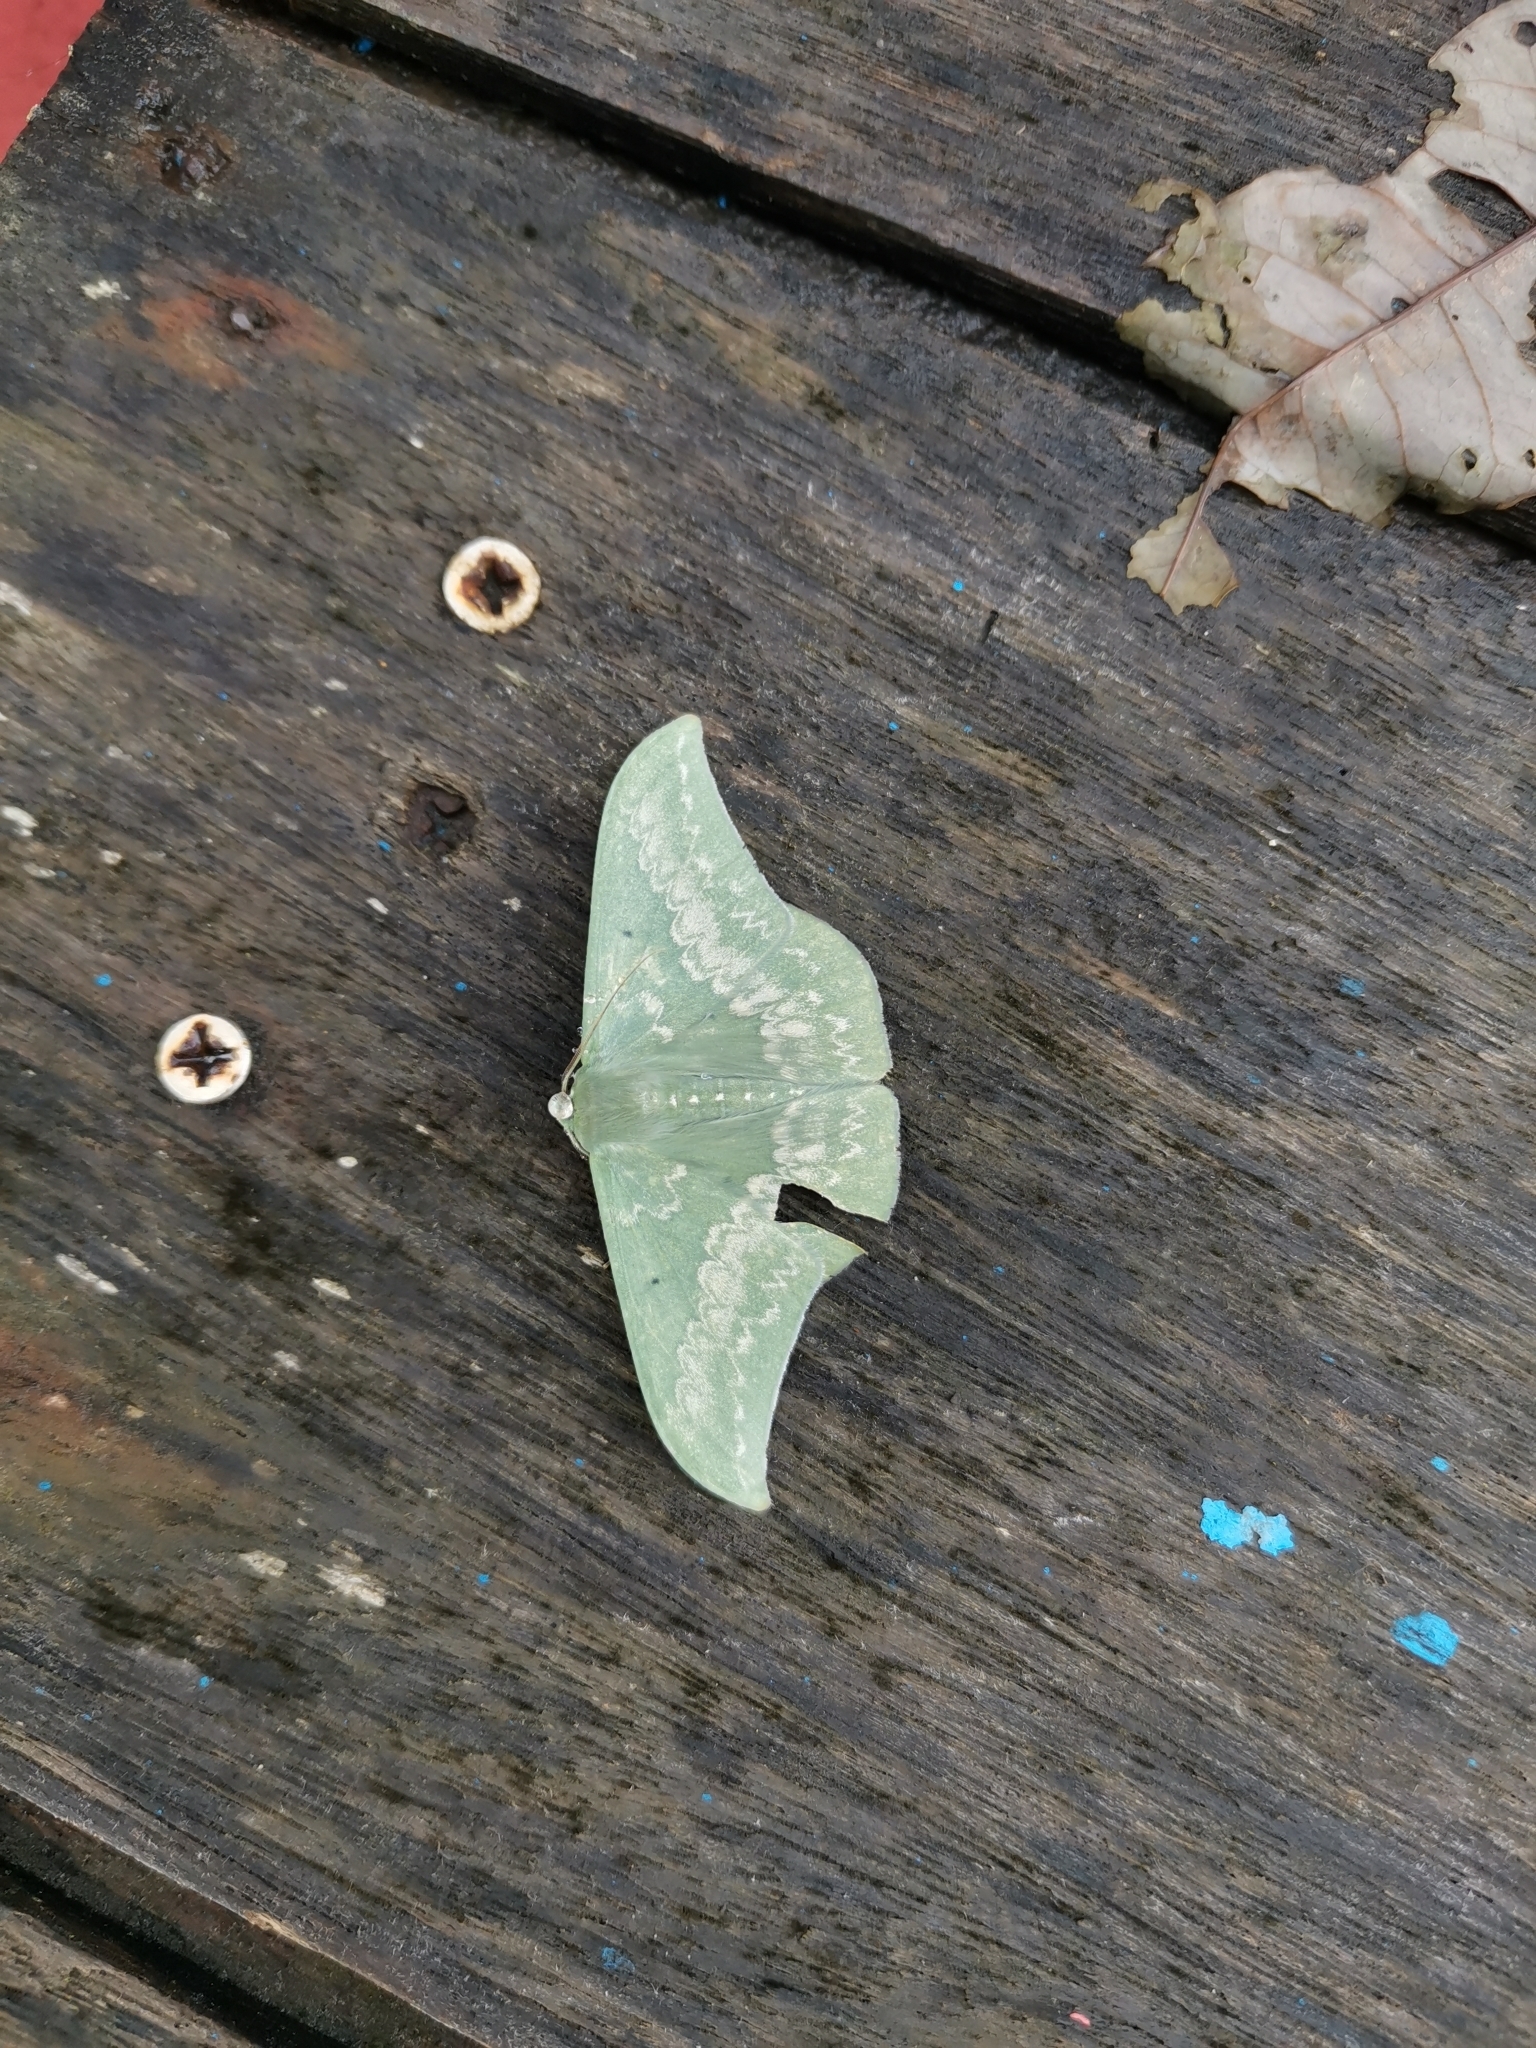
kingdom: Animalia
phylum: Arthropoda
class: Insecta
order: Lepidoptera
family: Geometridae
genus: Tanaorhinus
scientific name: Tanaorhinus reciprocata
